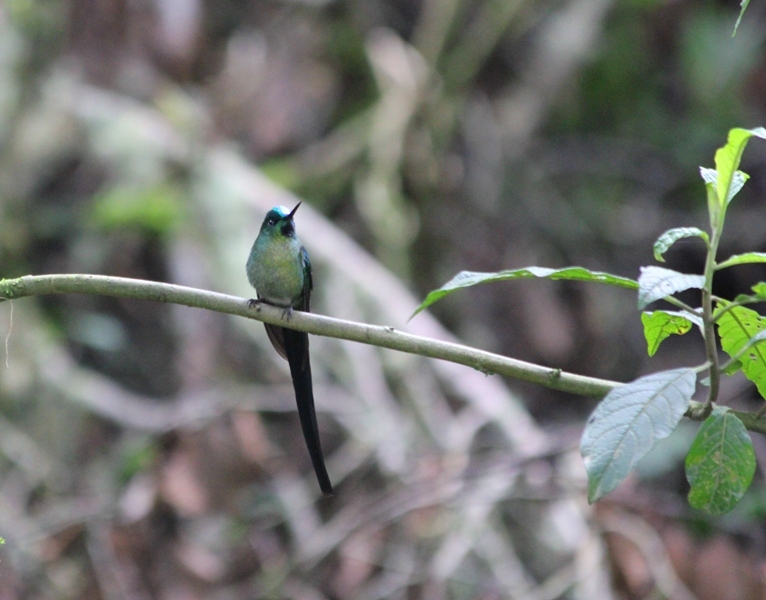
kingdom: Animalia
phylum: Chordata
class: Aves
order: Apodiformes
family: Trochilidae
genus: Aglaiocercus
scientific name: Aglaiocercus kingii
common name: Long-tailed sylph
